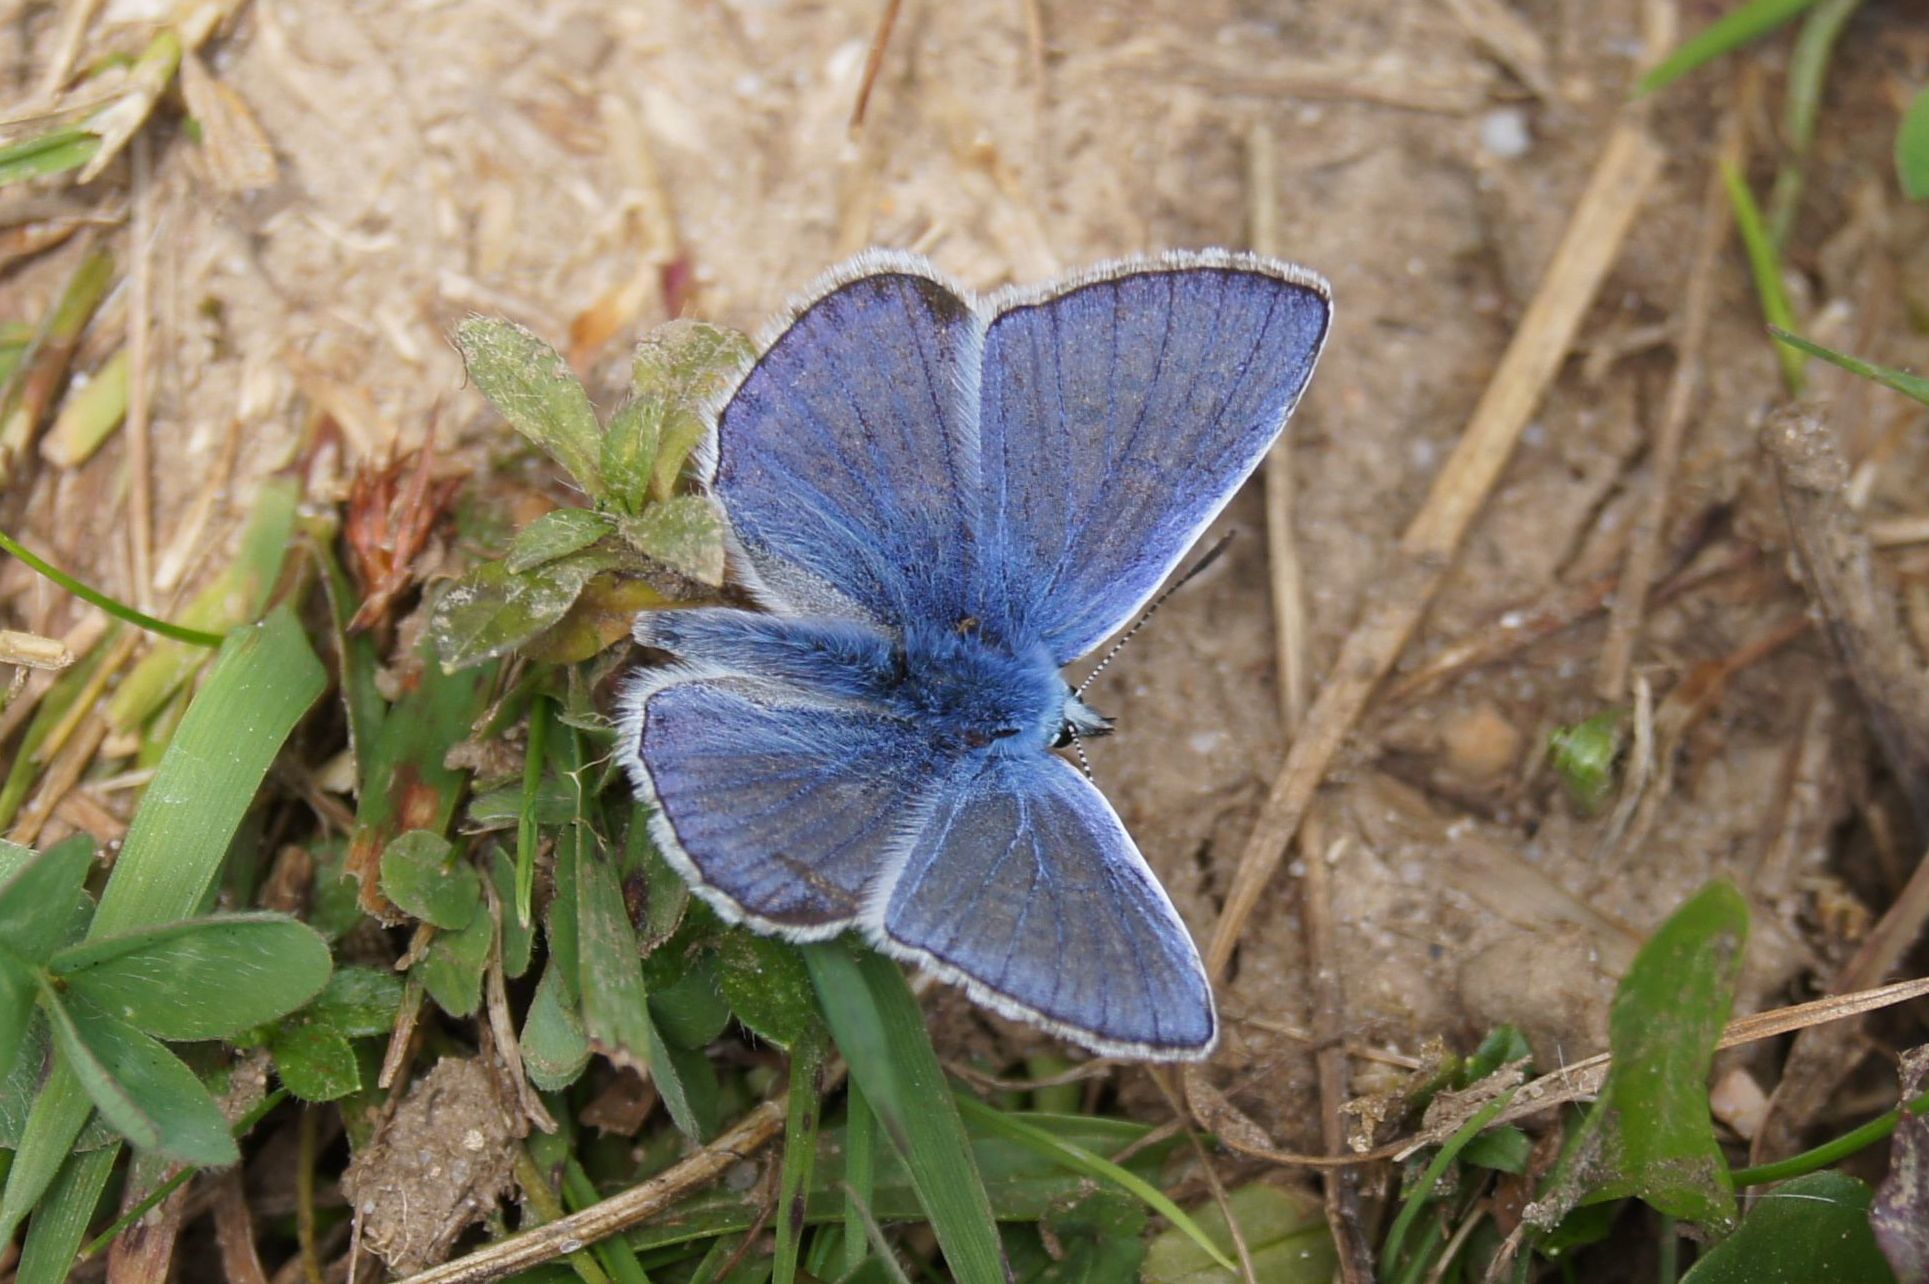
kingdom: Animalia
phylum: Arthropoda
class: Insecta
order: Lepidoptera
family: Lycaenidae
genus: Polyommatus
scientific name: Polyommatus icarus
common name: Common blue
